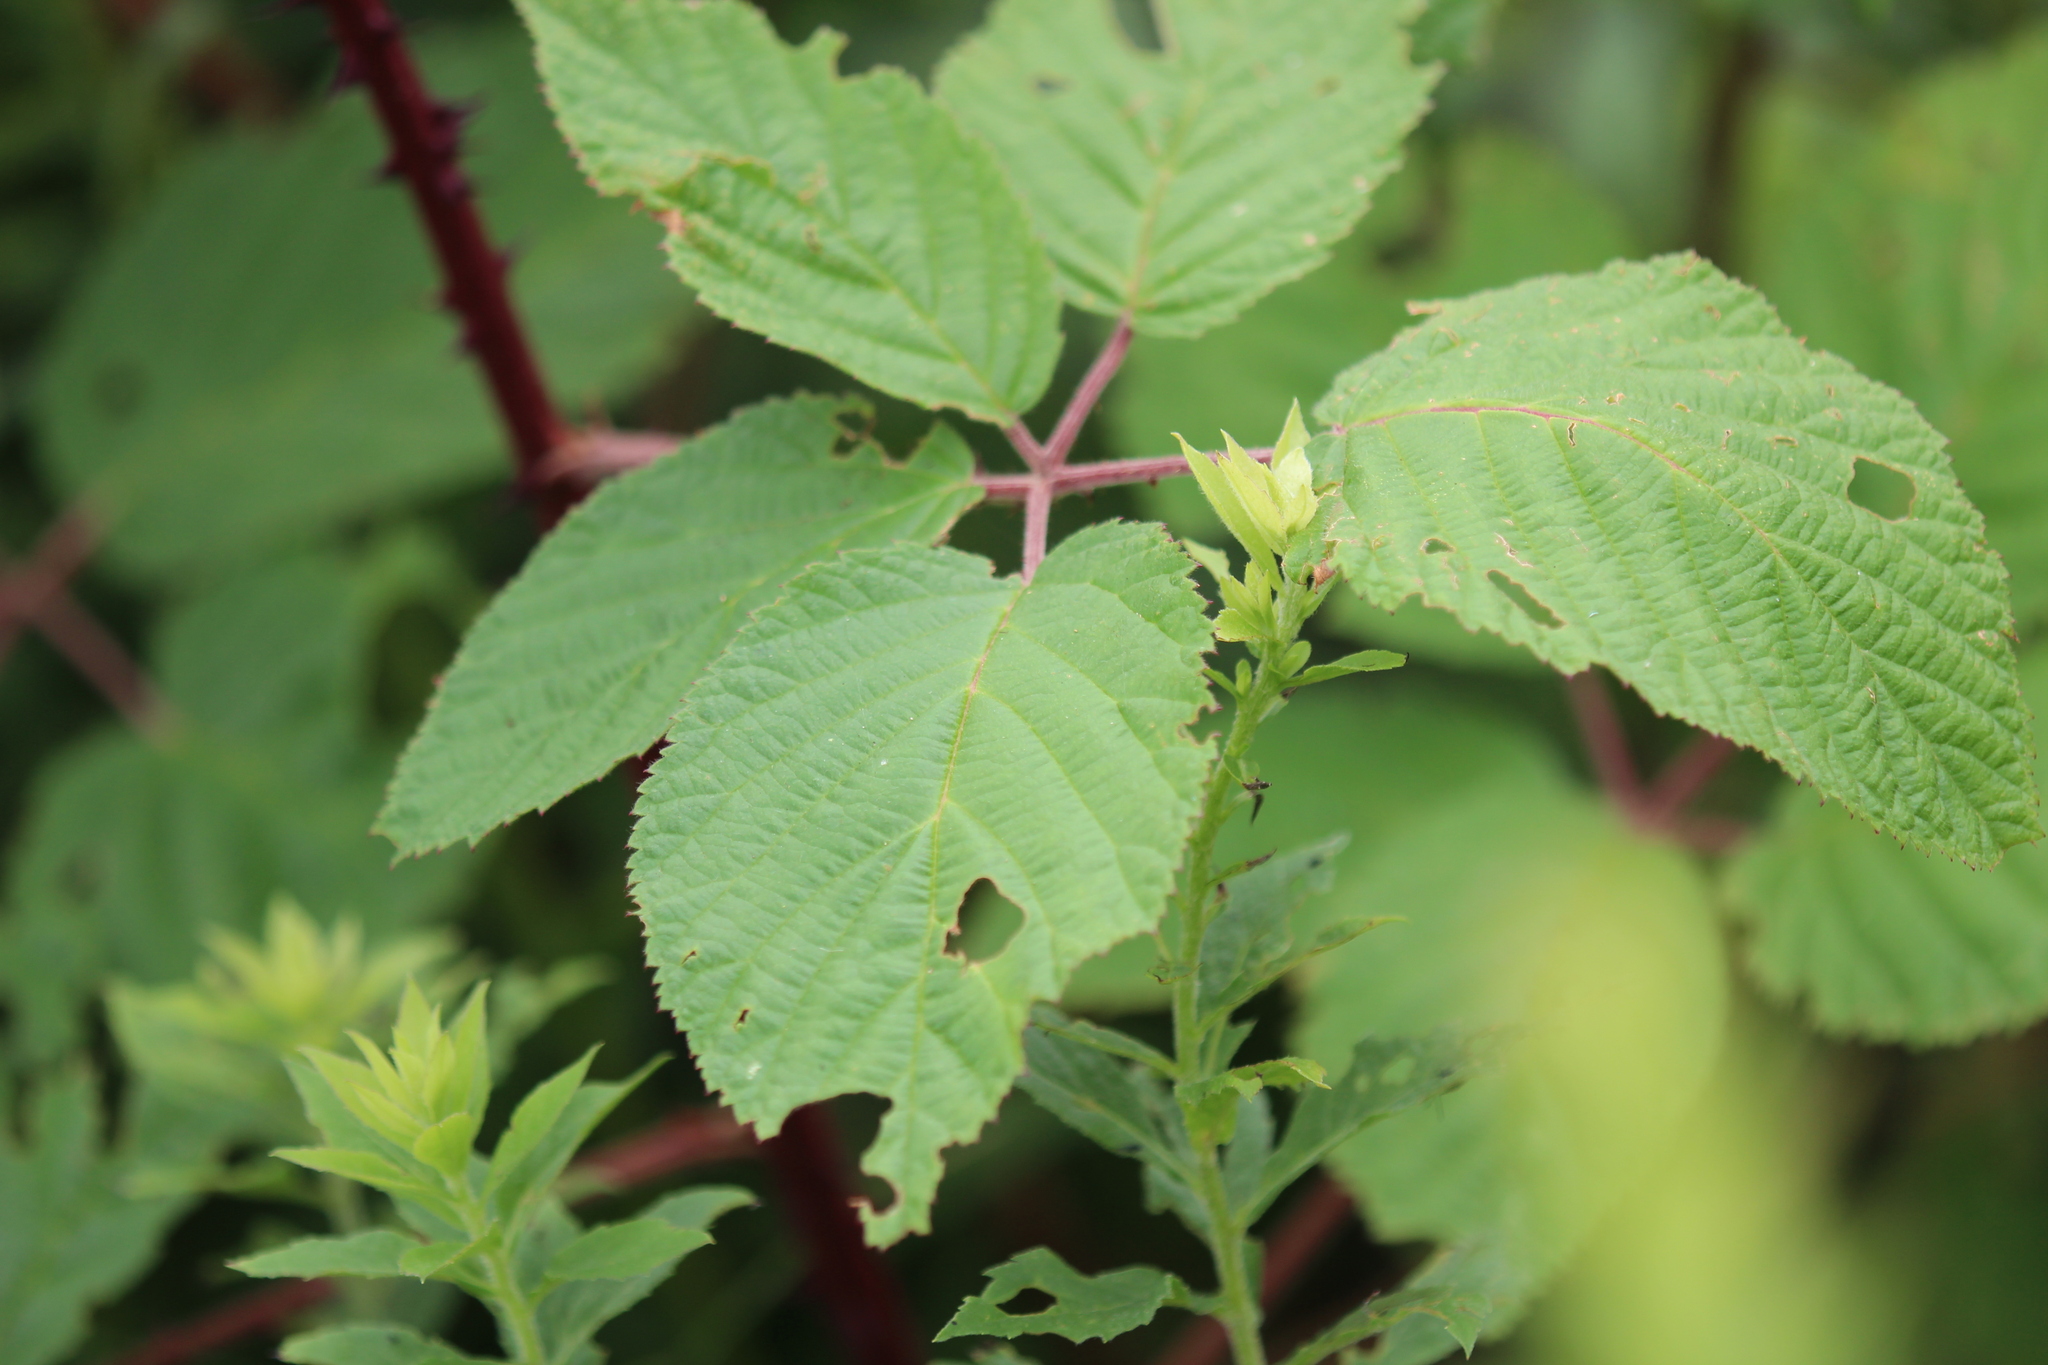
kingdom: Plantae
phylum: Tracheophyta
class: Magnoliopsida
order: Rosales
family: Rosaceae
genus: Rubus
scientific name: Rubus allegheniensis
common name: Allegheny blackberry
